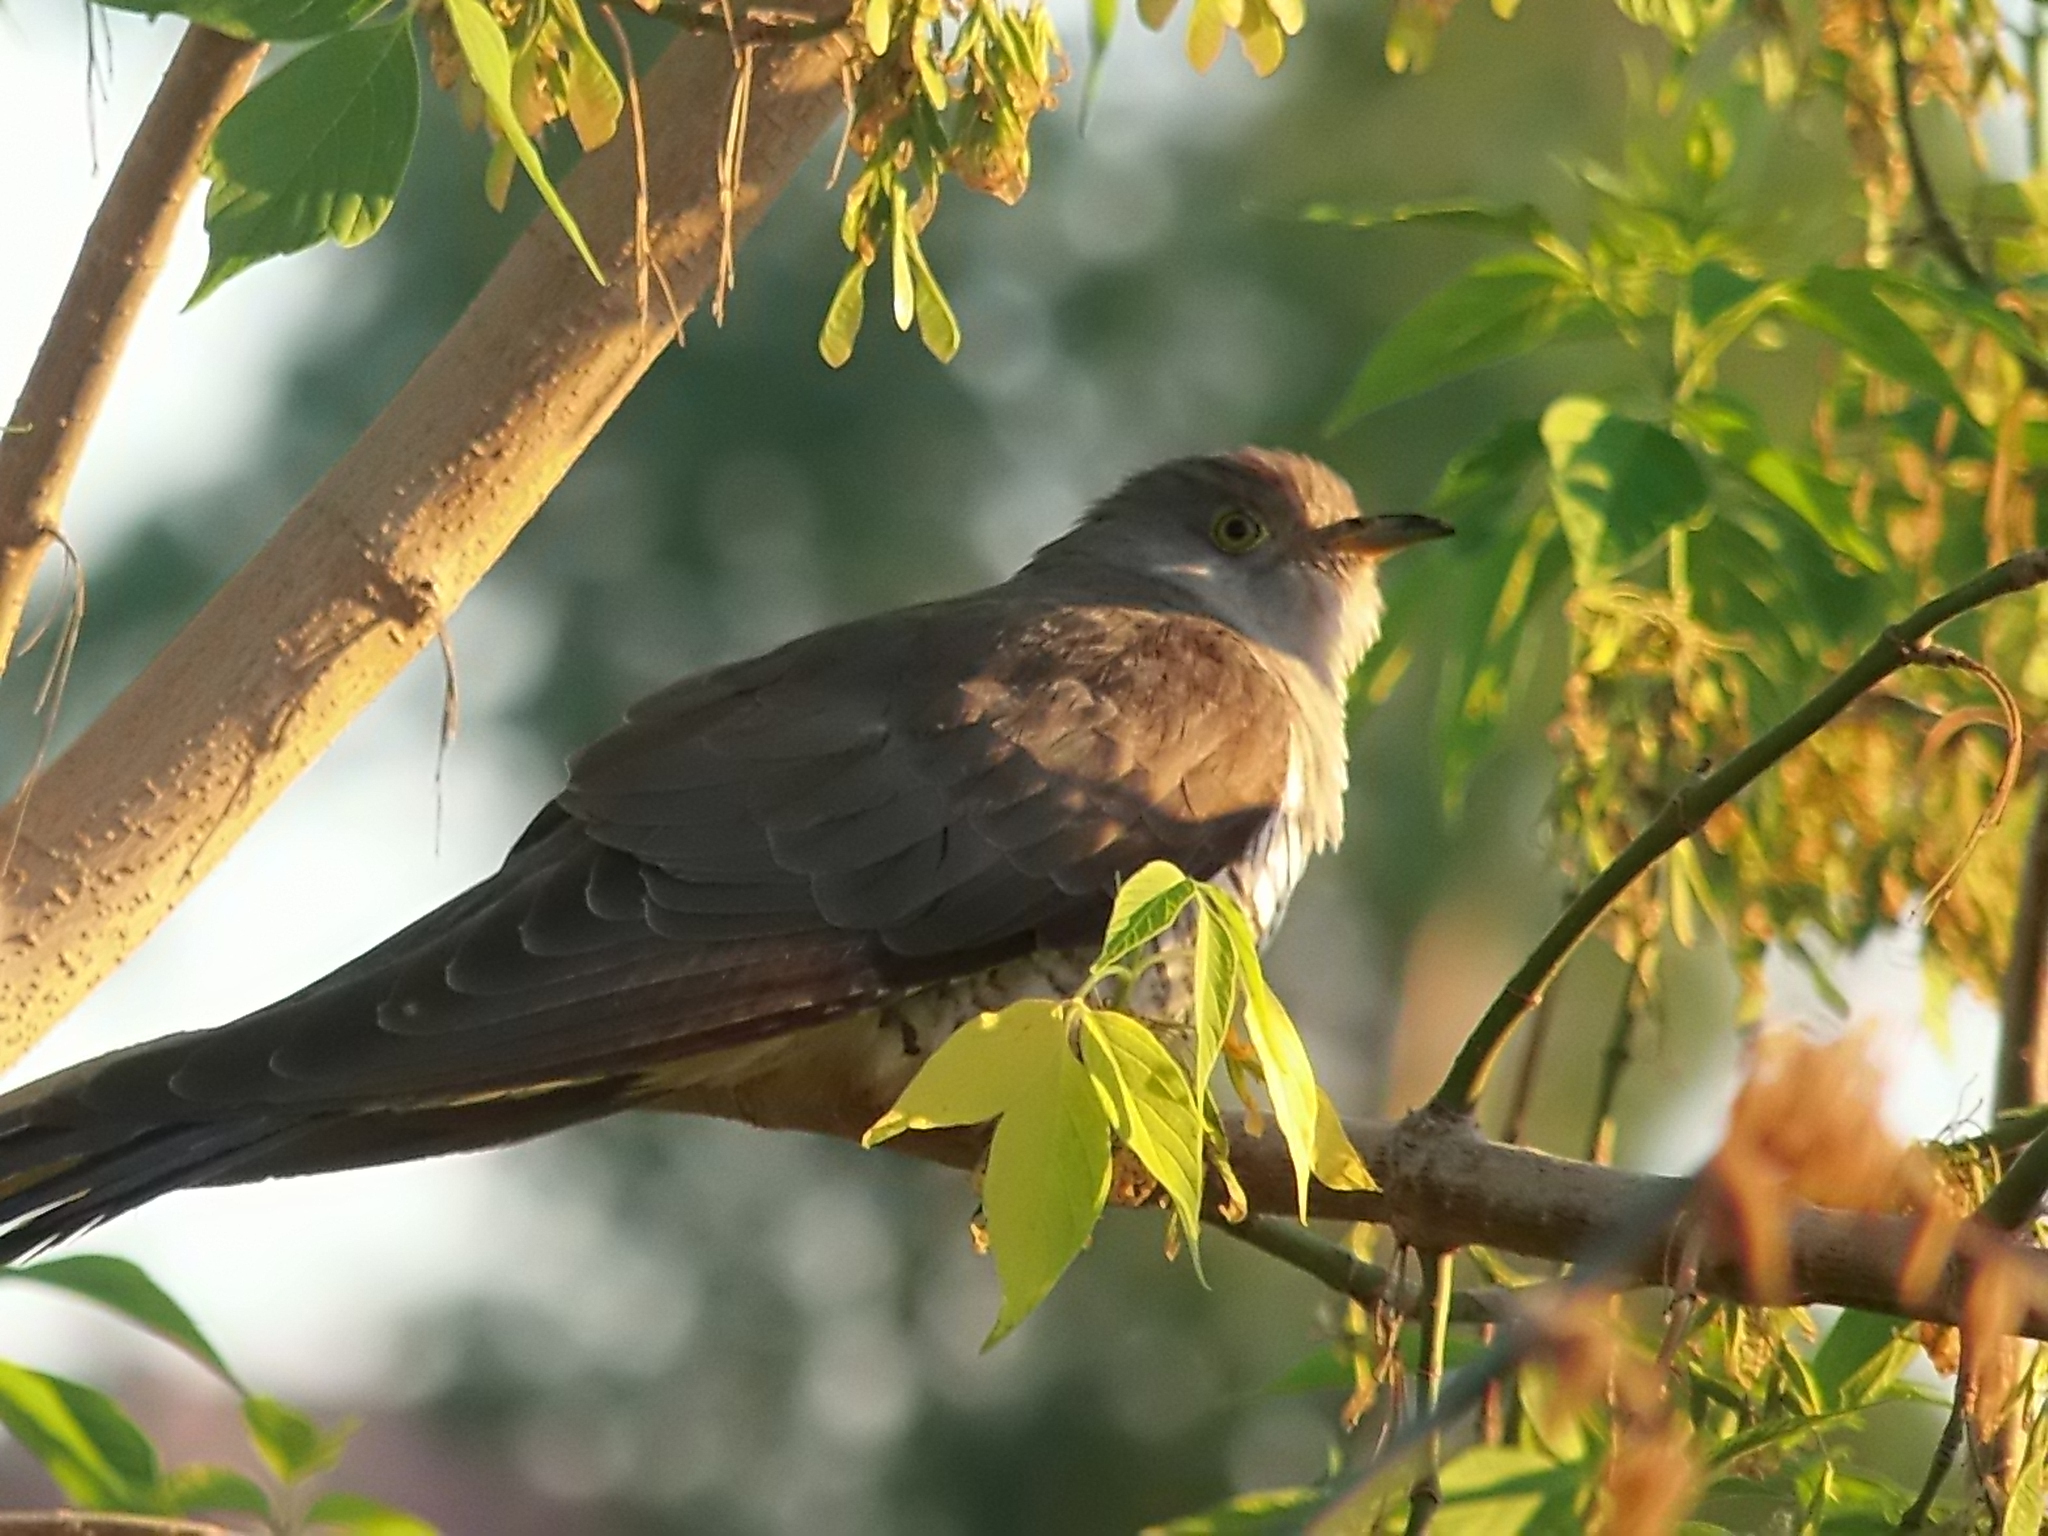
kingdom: Animalia
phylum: Chordata
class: Aves
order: Cuculiformes
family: Cuculidae
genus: Cuculus
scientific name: Cuculus canorus
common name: Common cuckoo
